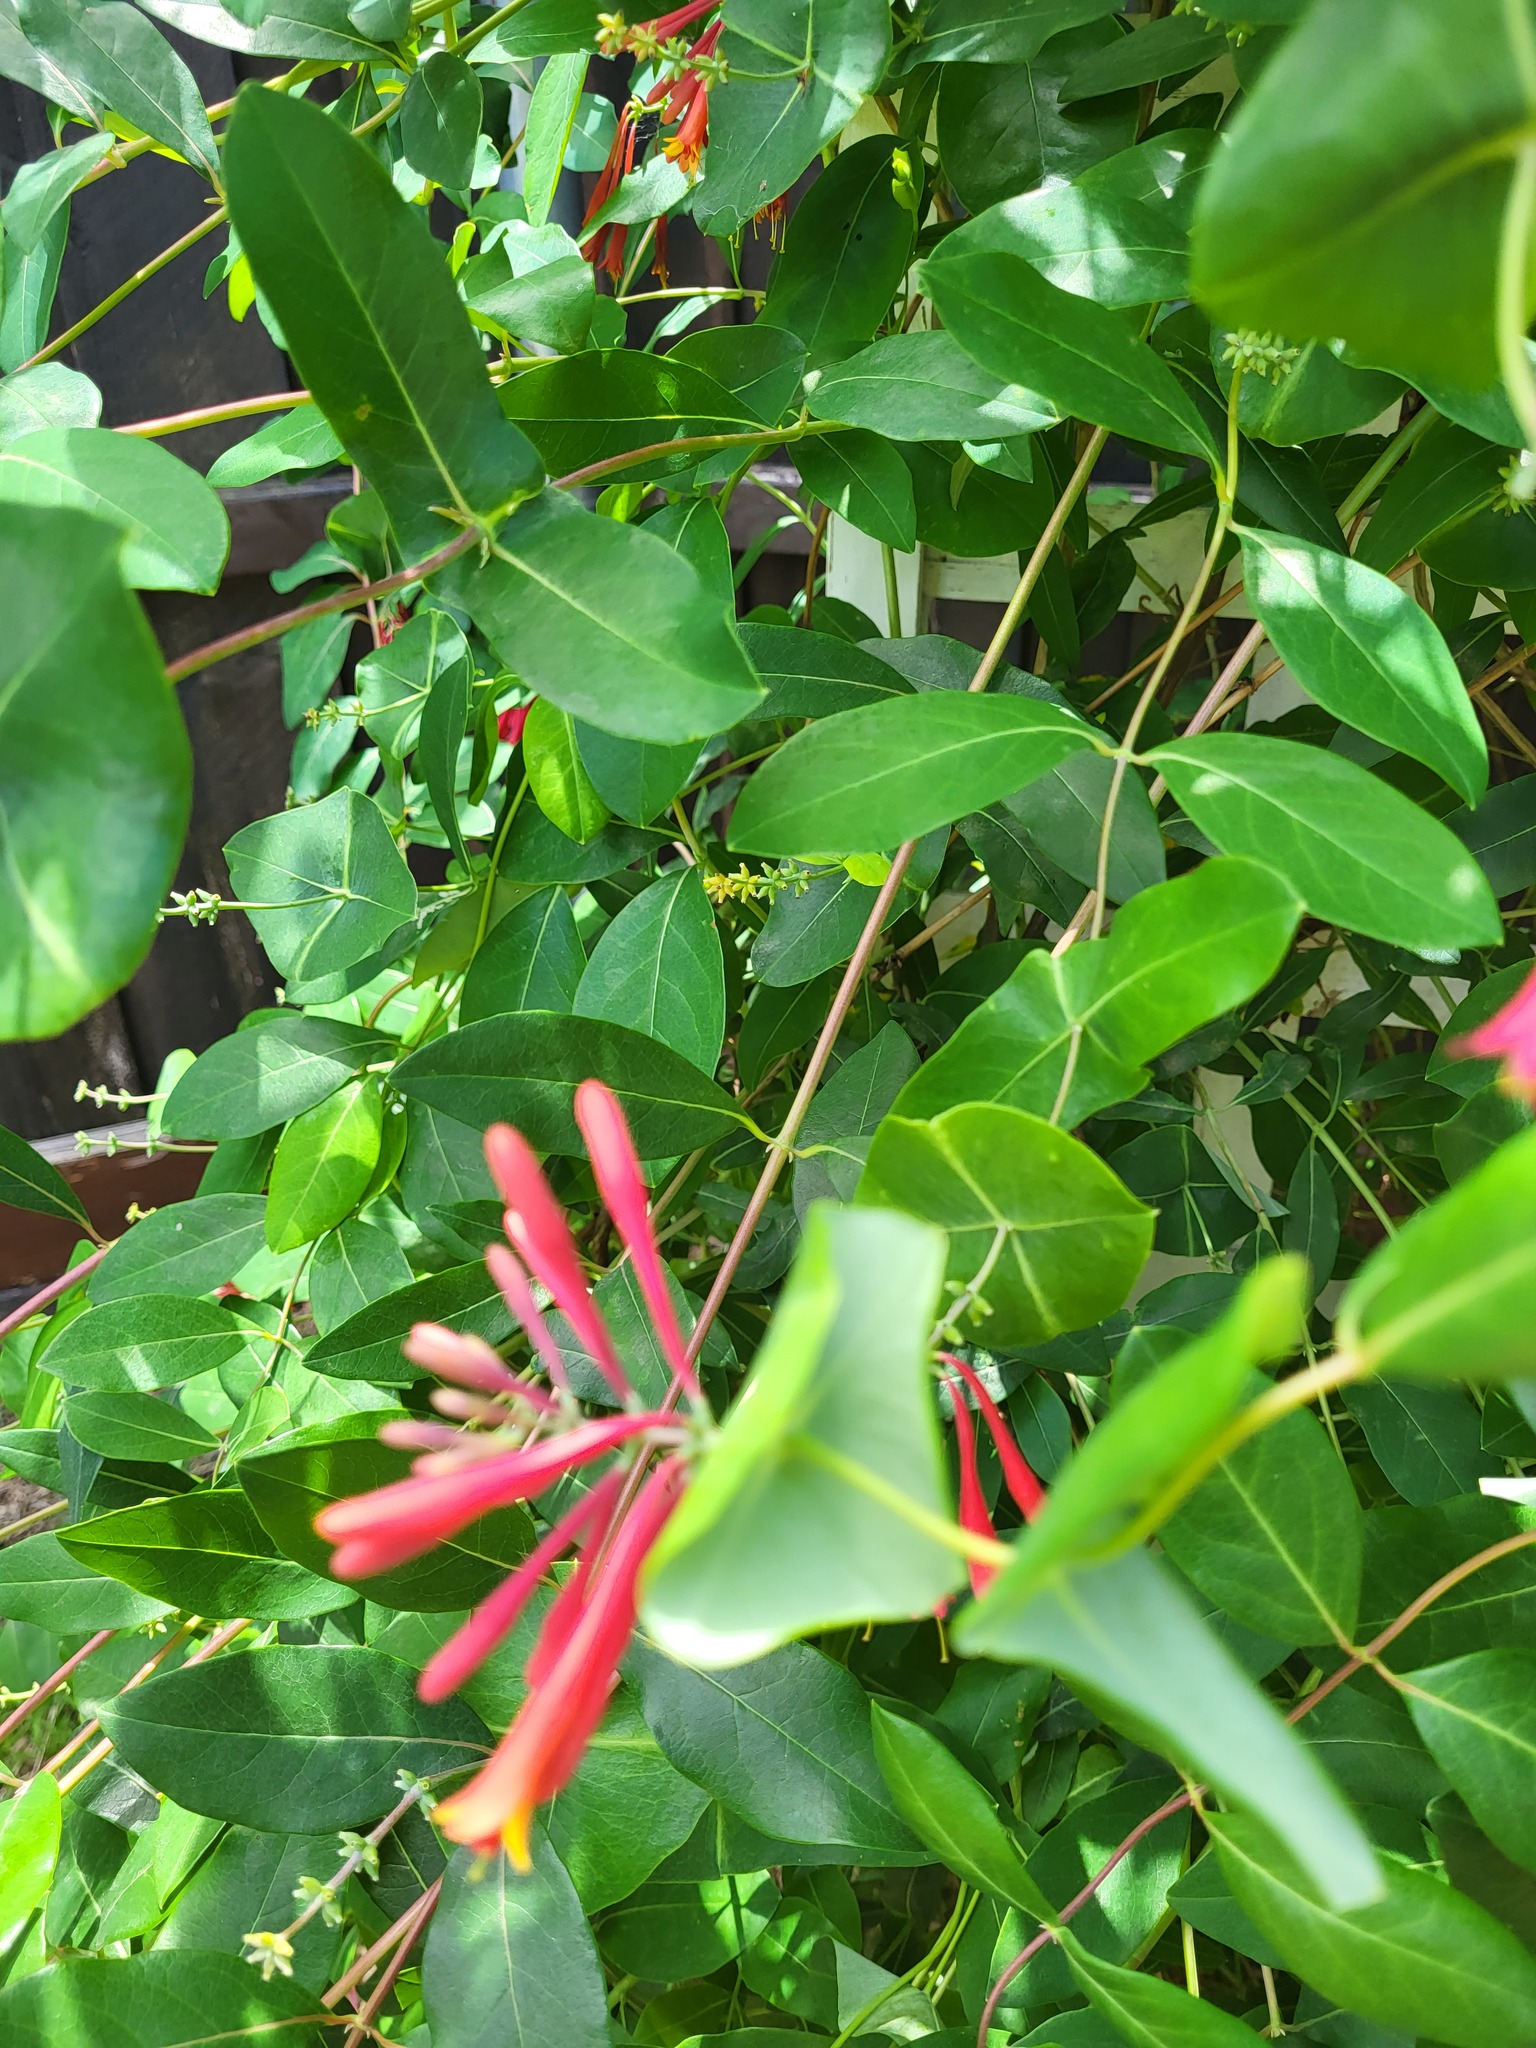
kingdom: Plantae
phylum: Tracheophyta
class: Magnoliopsida
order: Dipsacales
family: Caprifoliaceae
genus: Lonicera
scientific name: Lonicera sempervirens
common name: Coral honeysuckle
